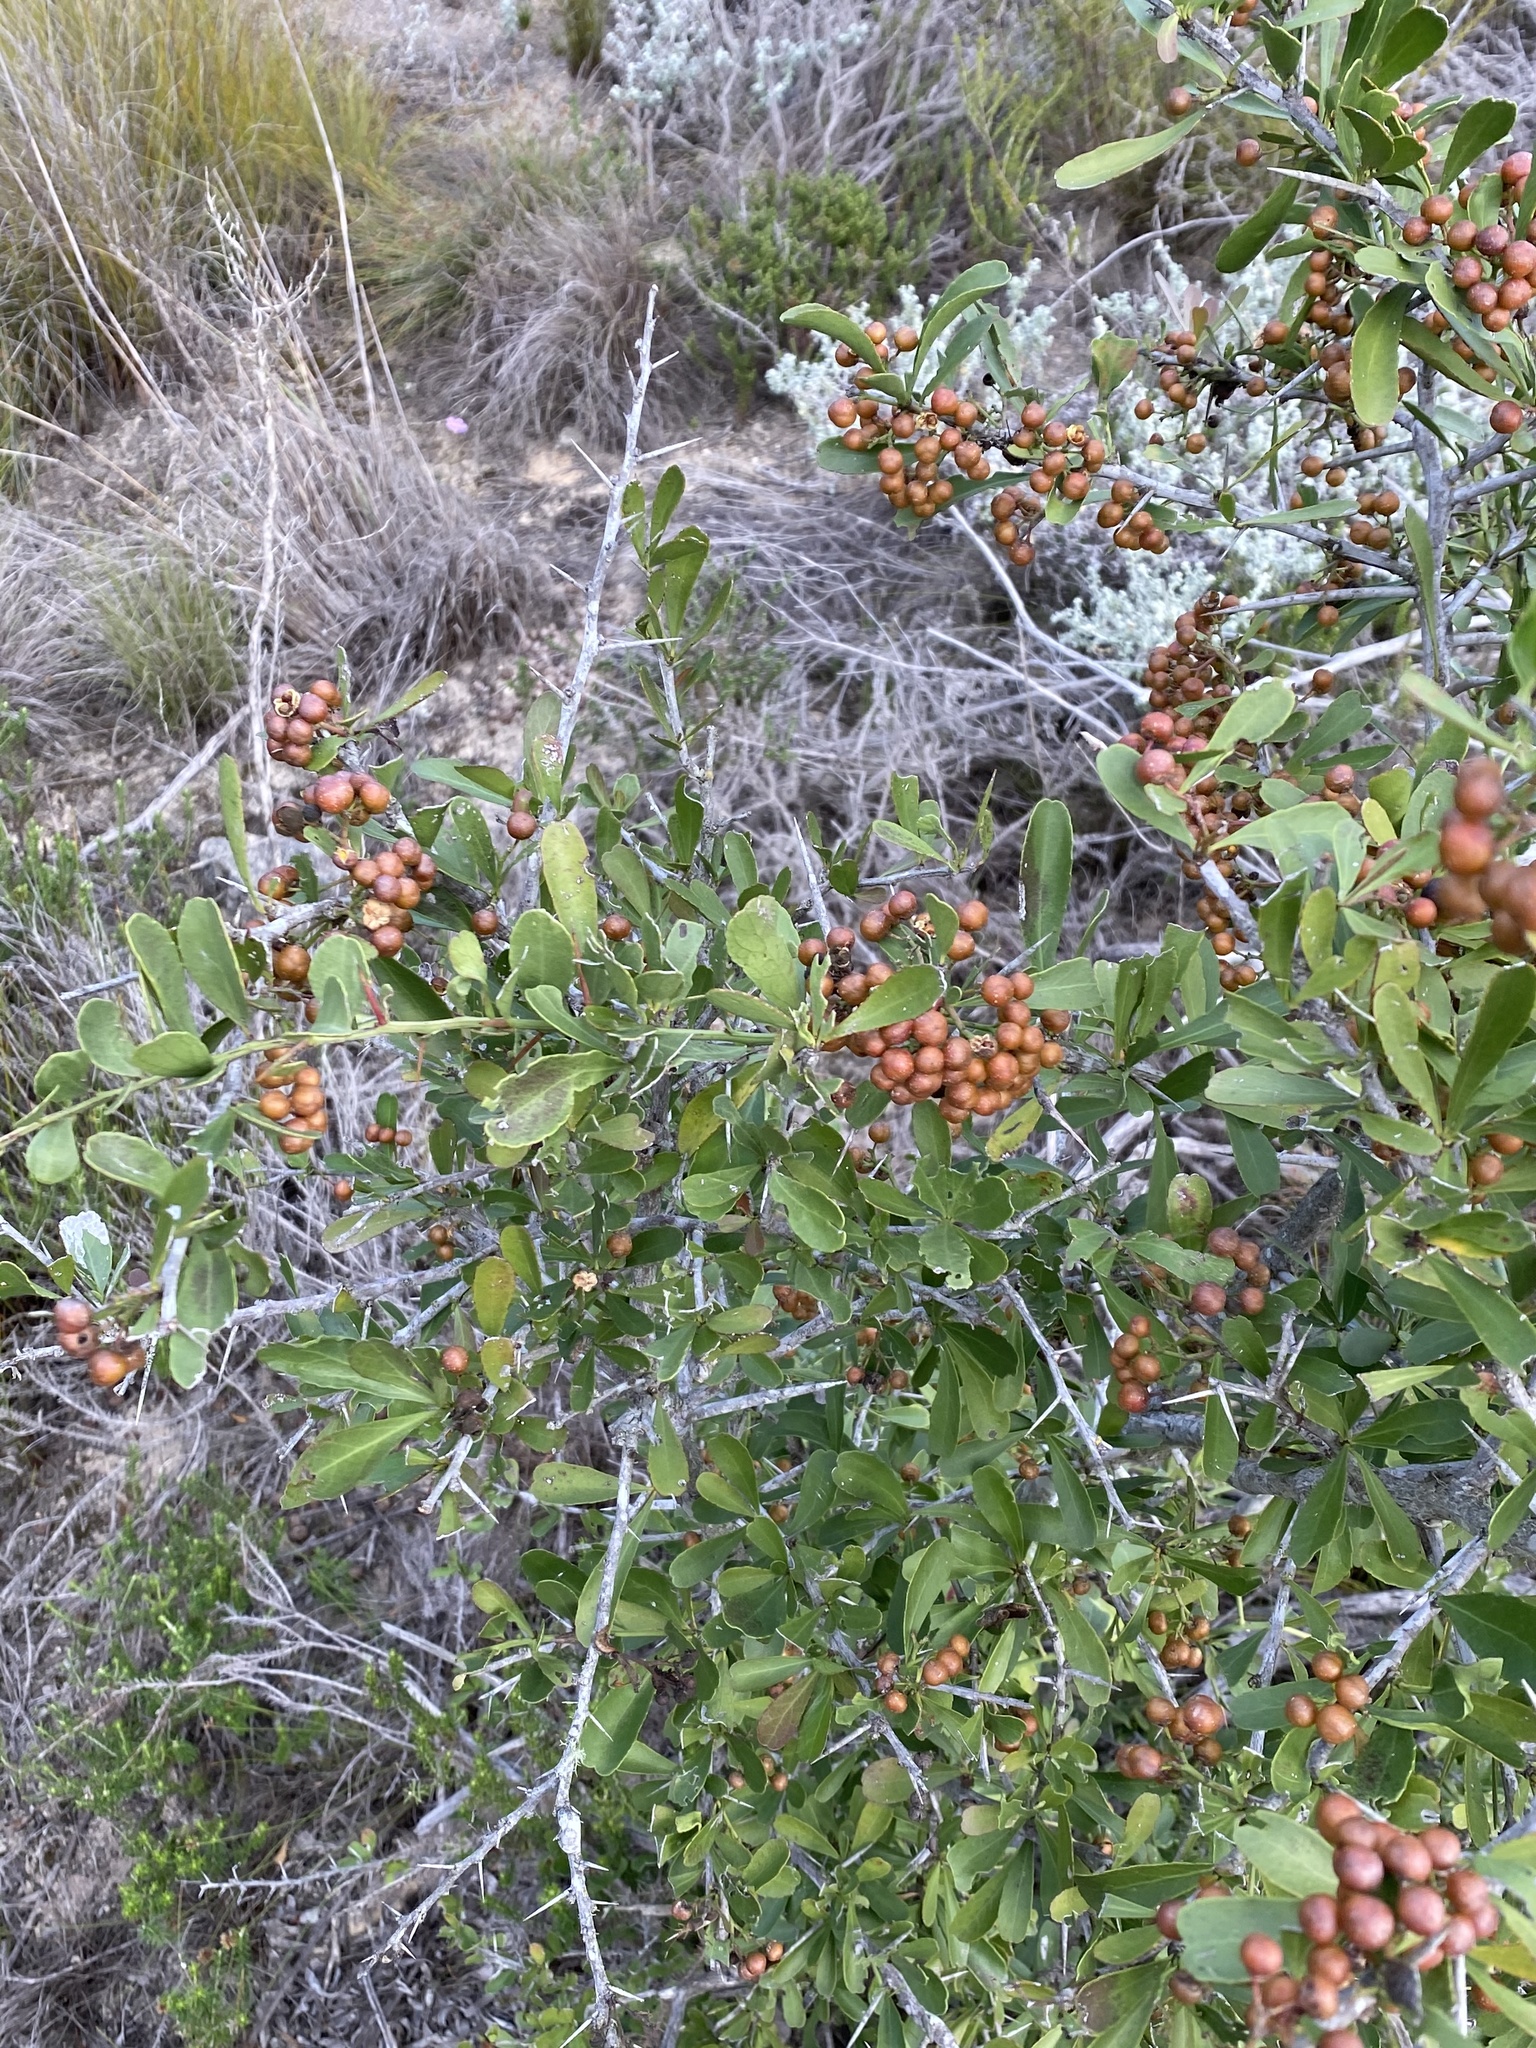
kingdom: Plantae
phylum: Tracheophyta
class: Magnoliopsida
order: Rosales
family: Rosaceae
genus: Pyracantha
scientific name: Pyracantha angustifolia
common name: Narrowleaf firethorn
